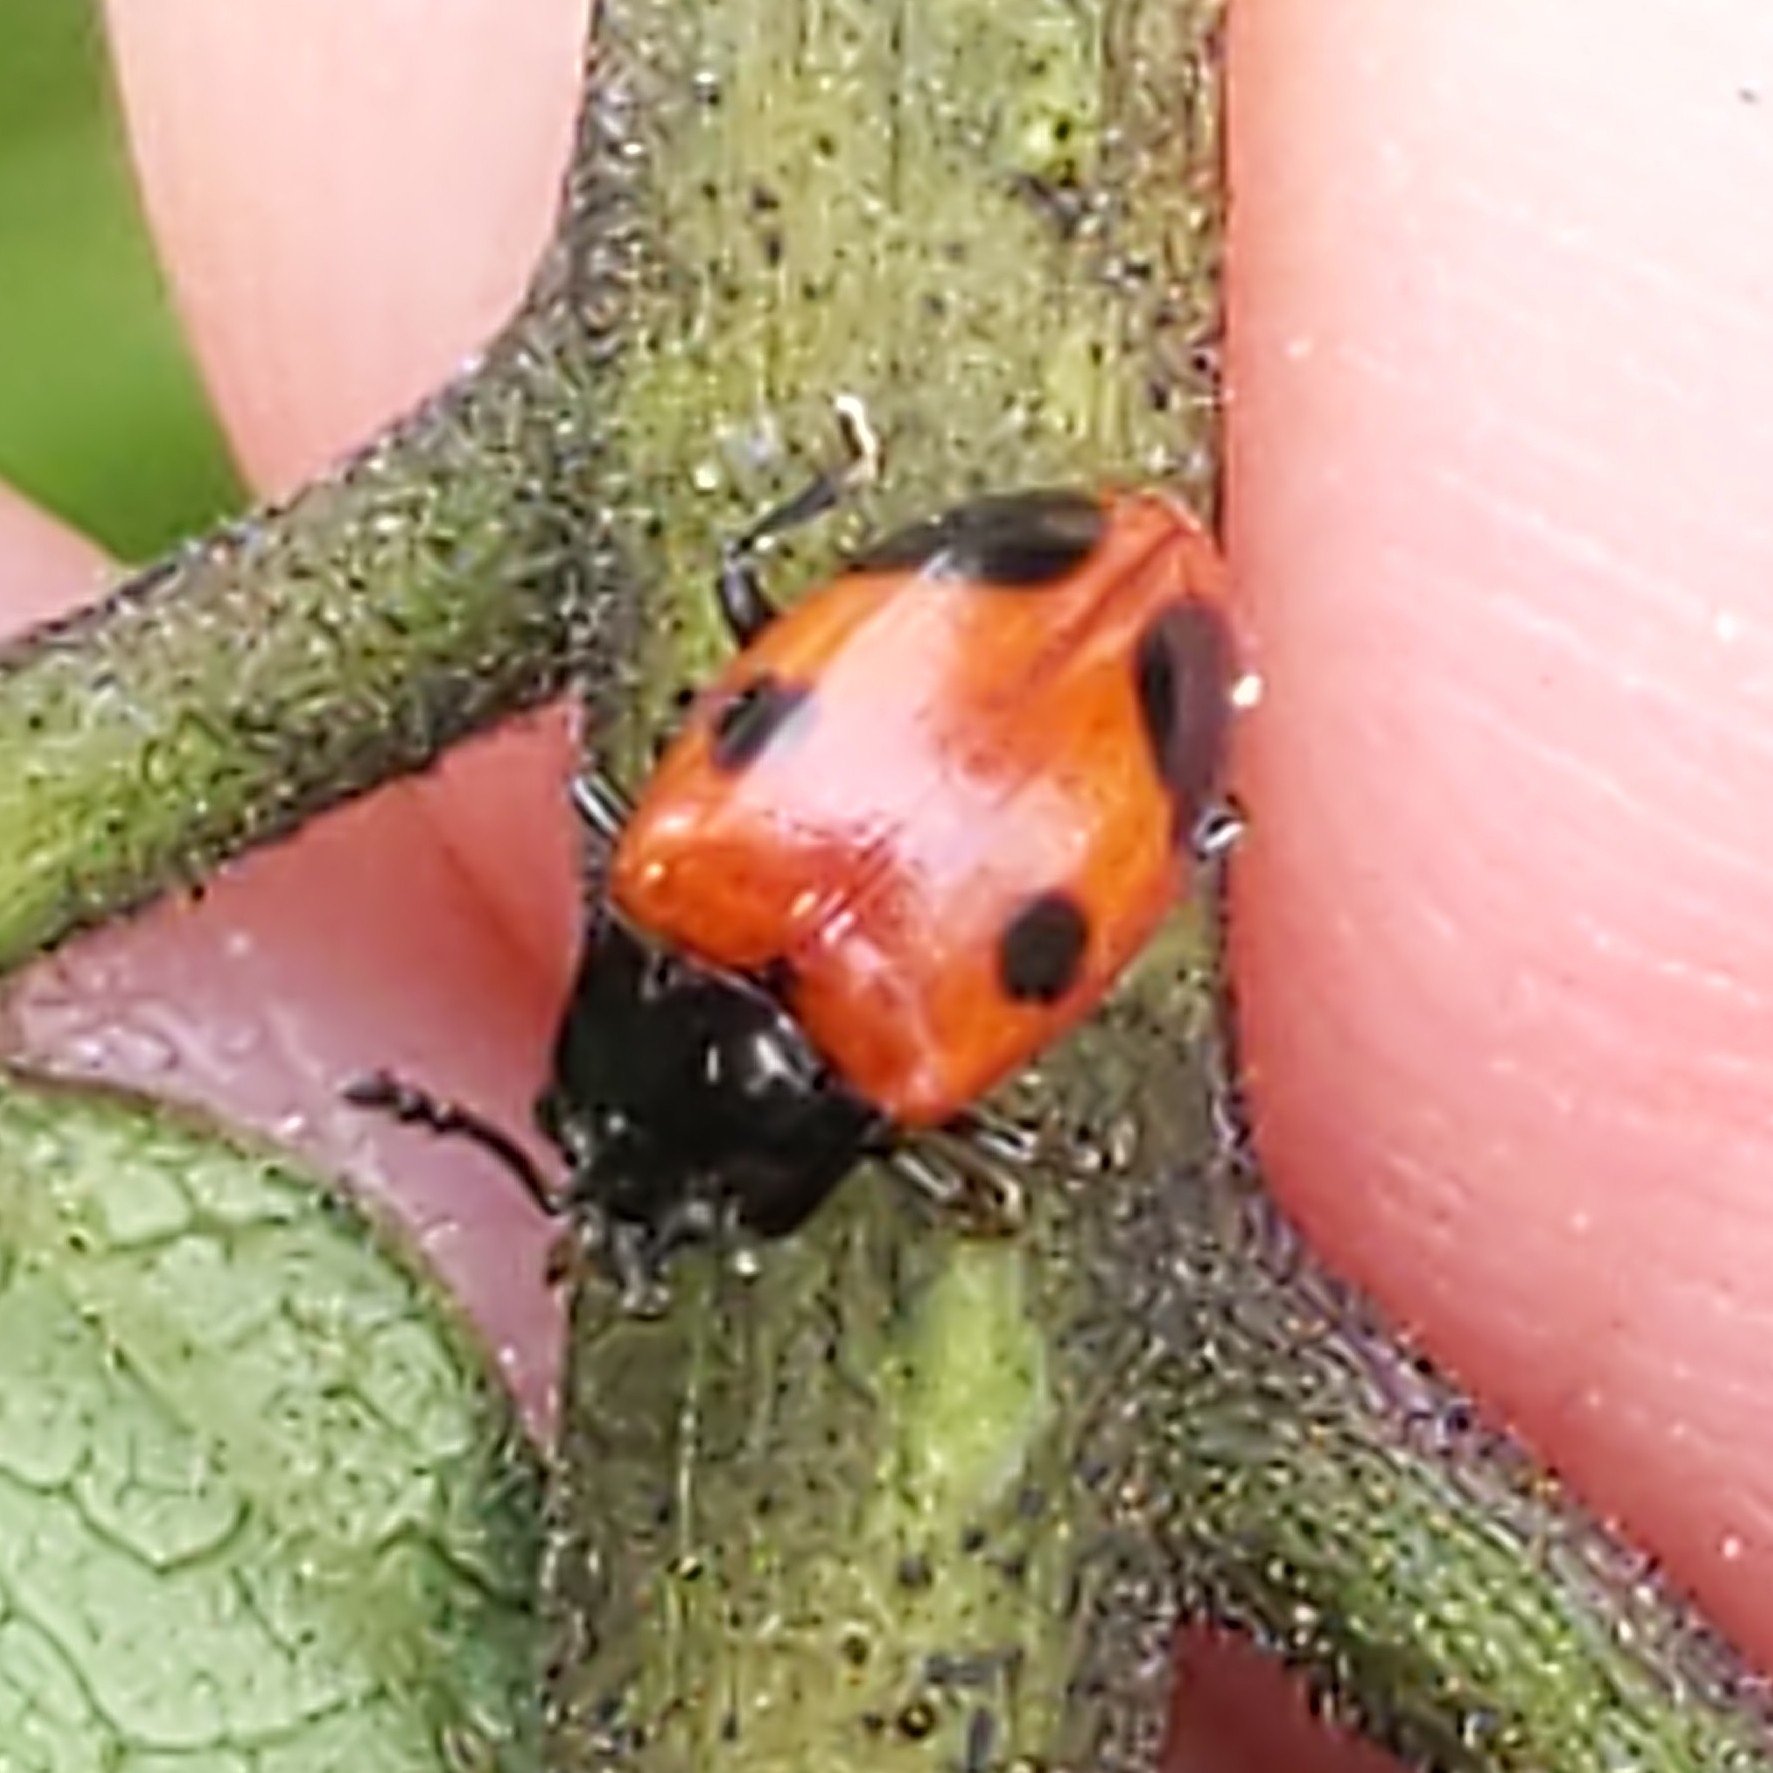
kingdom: Animalia
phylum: Arthropoda
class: Insecta
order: Coleoptera
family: Endomychidae
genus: Endomychus
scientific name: Endomychus biguttatus
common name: Handsome fungus beetle
